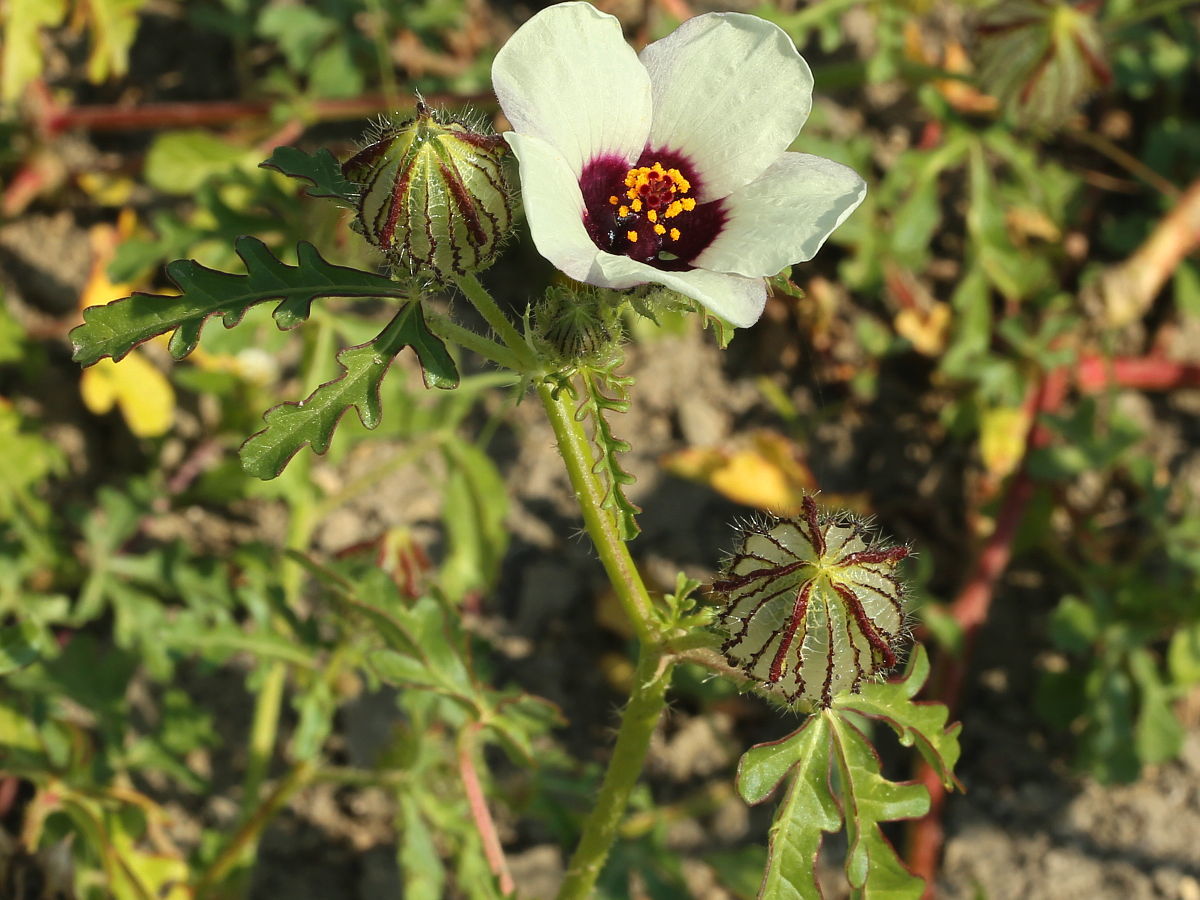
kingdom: Plantae
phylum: Tracheophyta
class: Magnoliopsida
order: Malvales
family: Malvaceae
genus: Hibiscus
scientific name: Hibiscus trionum
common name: Bladder ketmia
